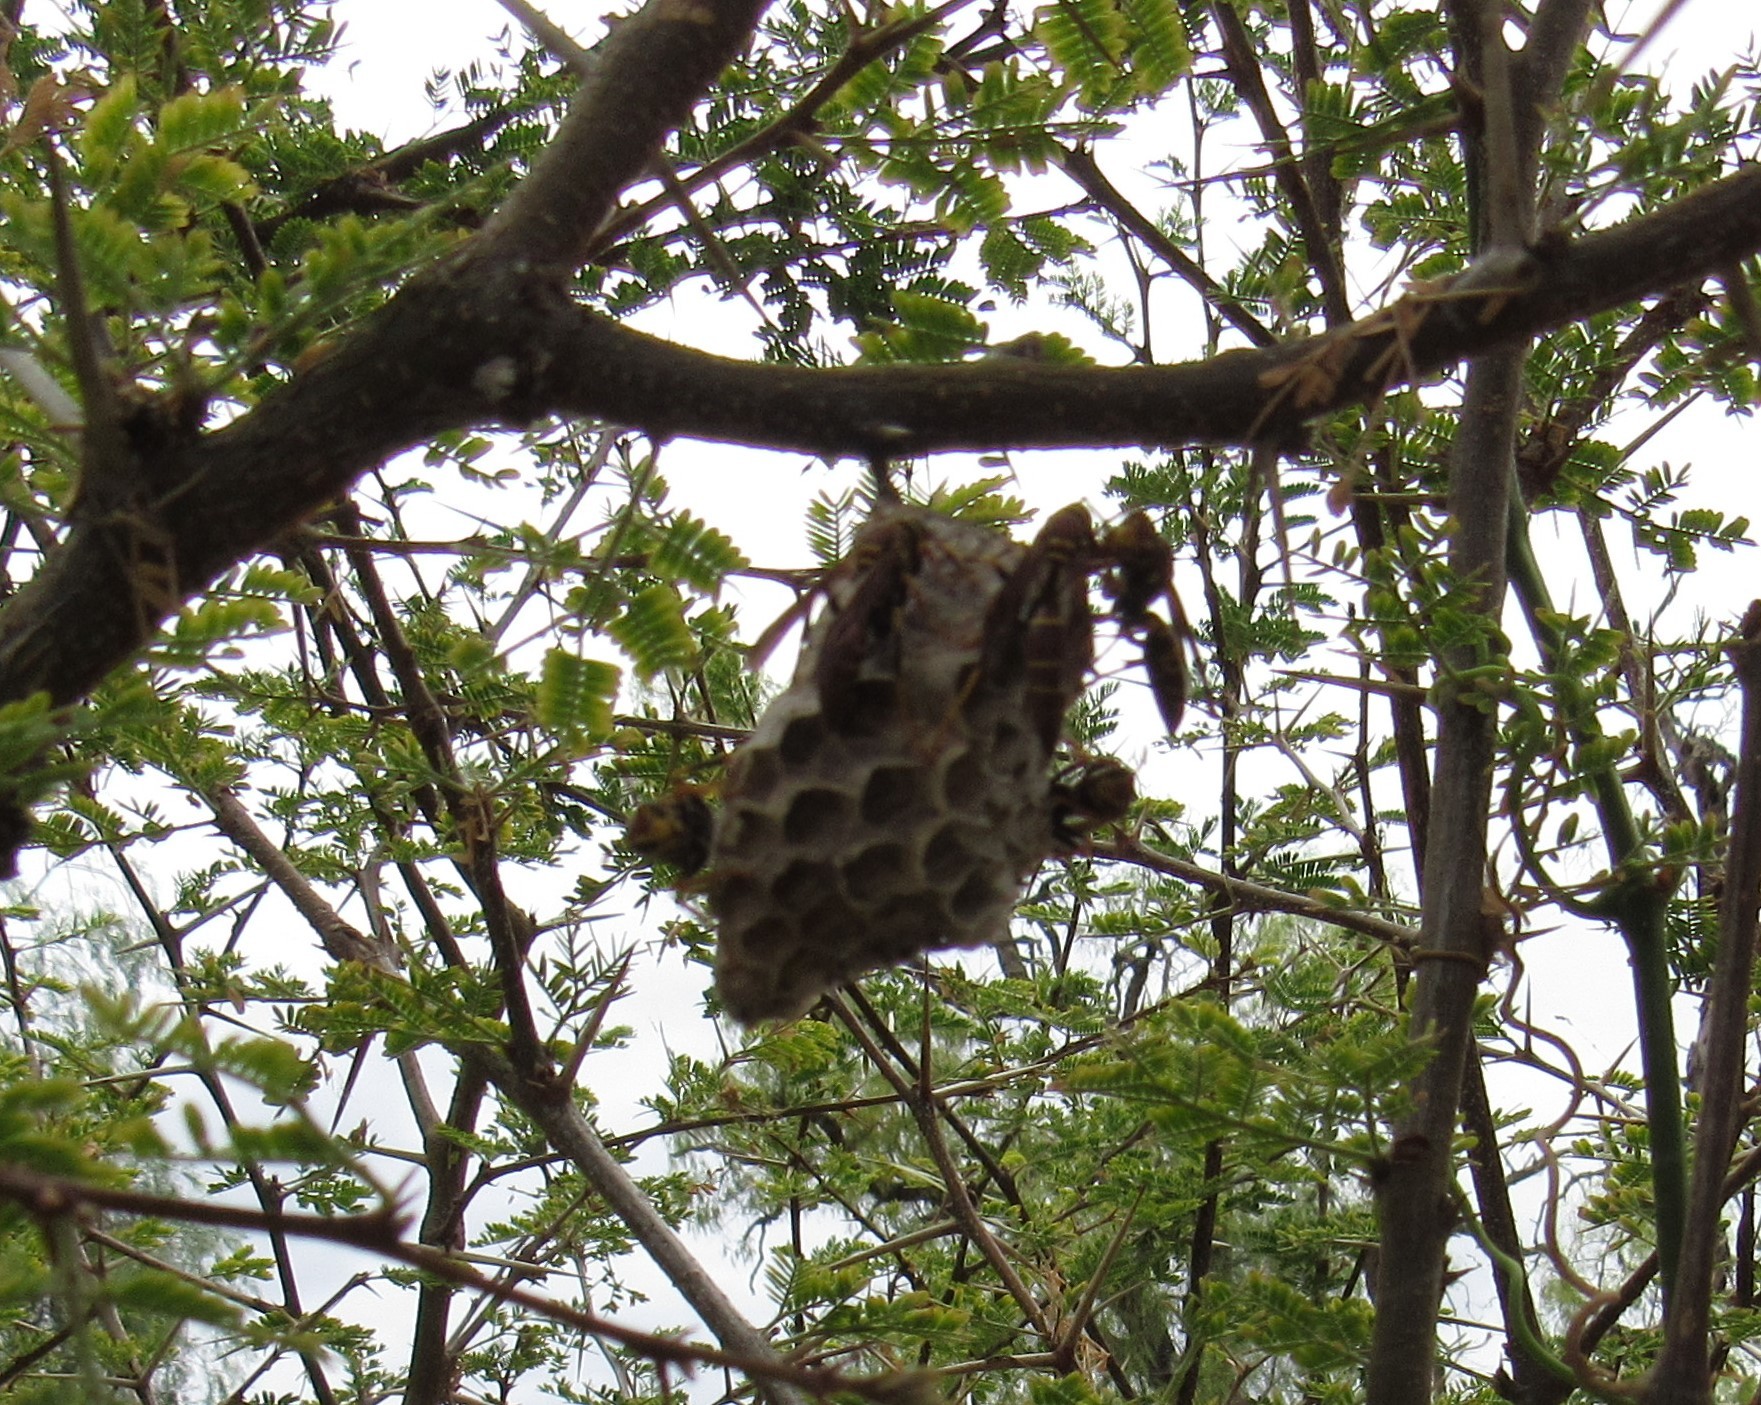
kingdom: Animalia
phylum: Arthropoda
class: Insecta
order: Hymenoptera
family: Eumenidae
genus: Polistes
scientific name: Polistes instabilis
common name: Unstable paper wasp
